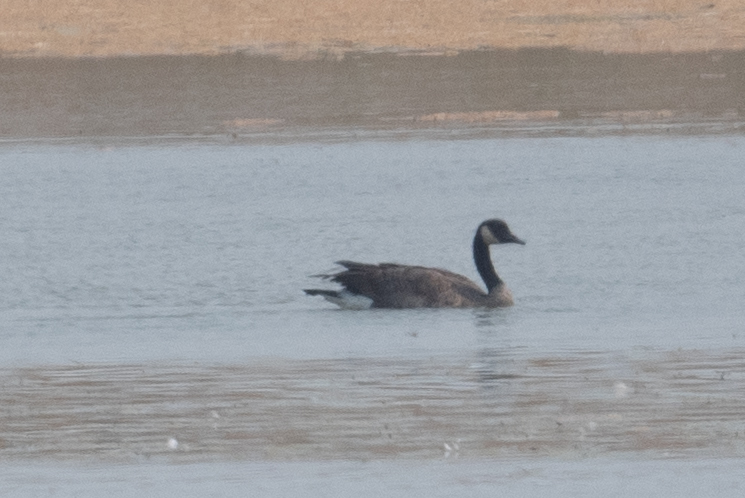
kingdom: Animalia
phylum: Chordata
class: Aves
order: Anseriformes
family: Anatidae
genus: Branta
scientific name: Branta canadensis
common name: Canada goose
